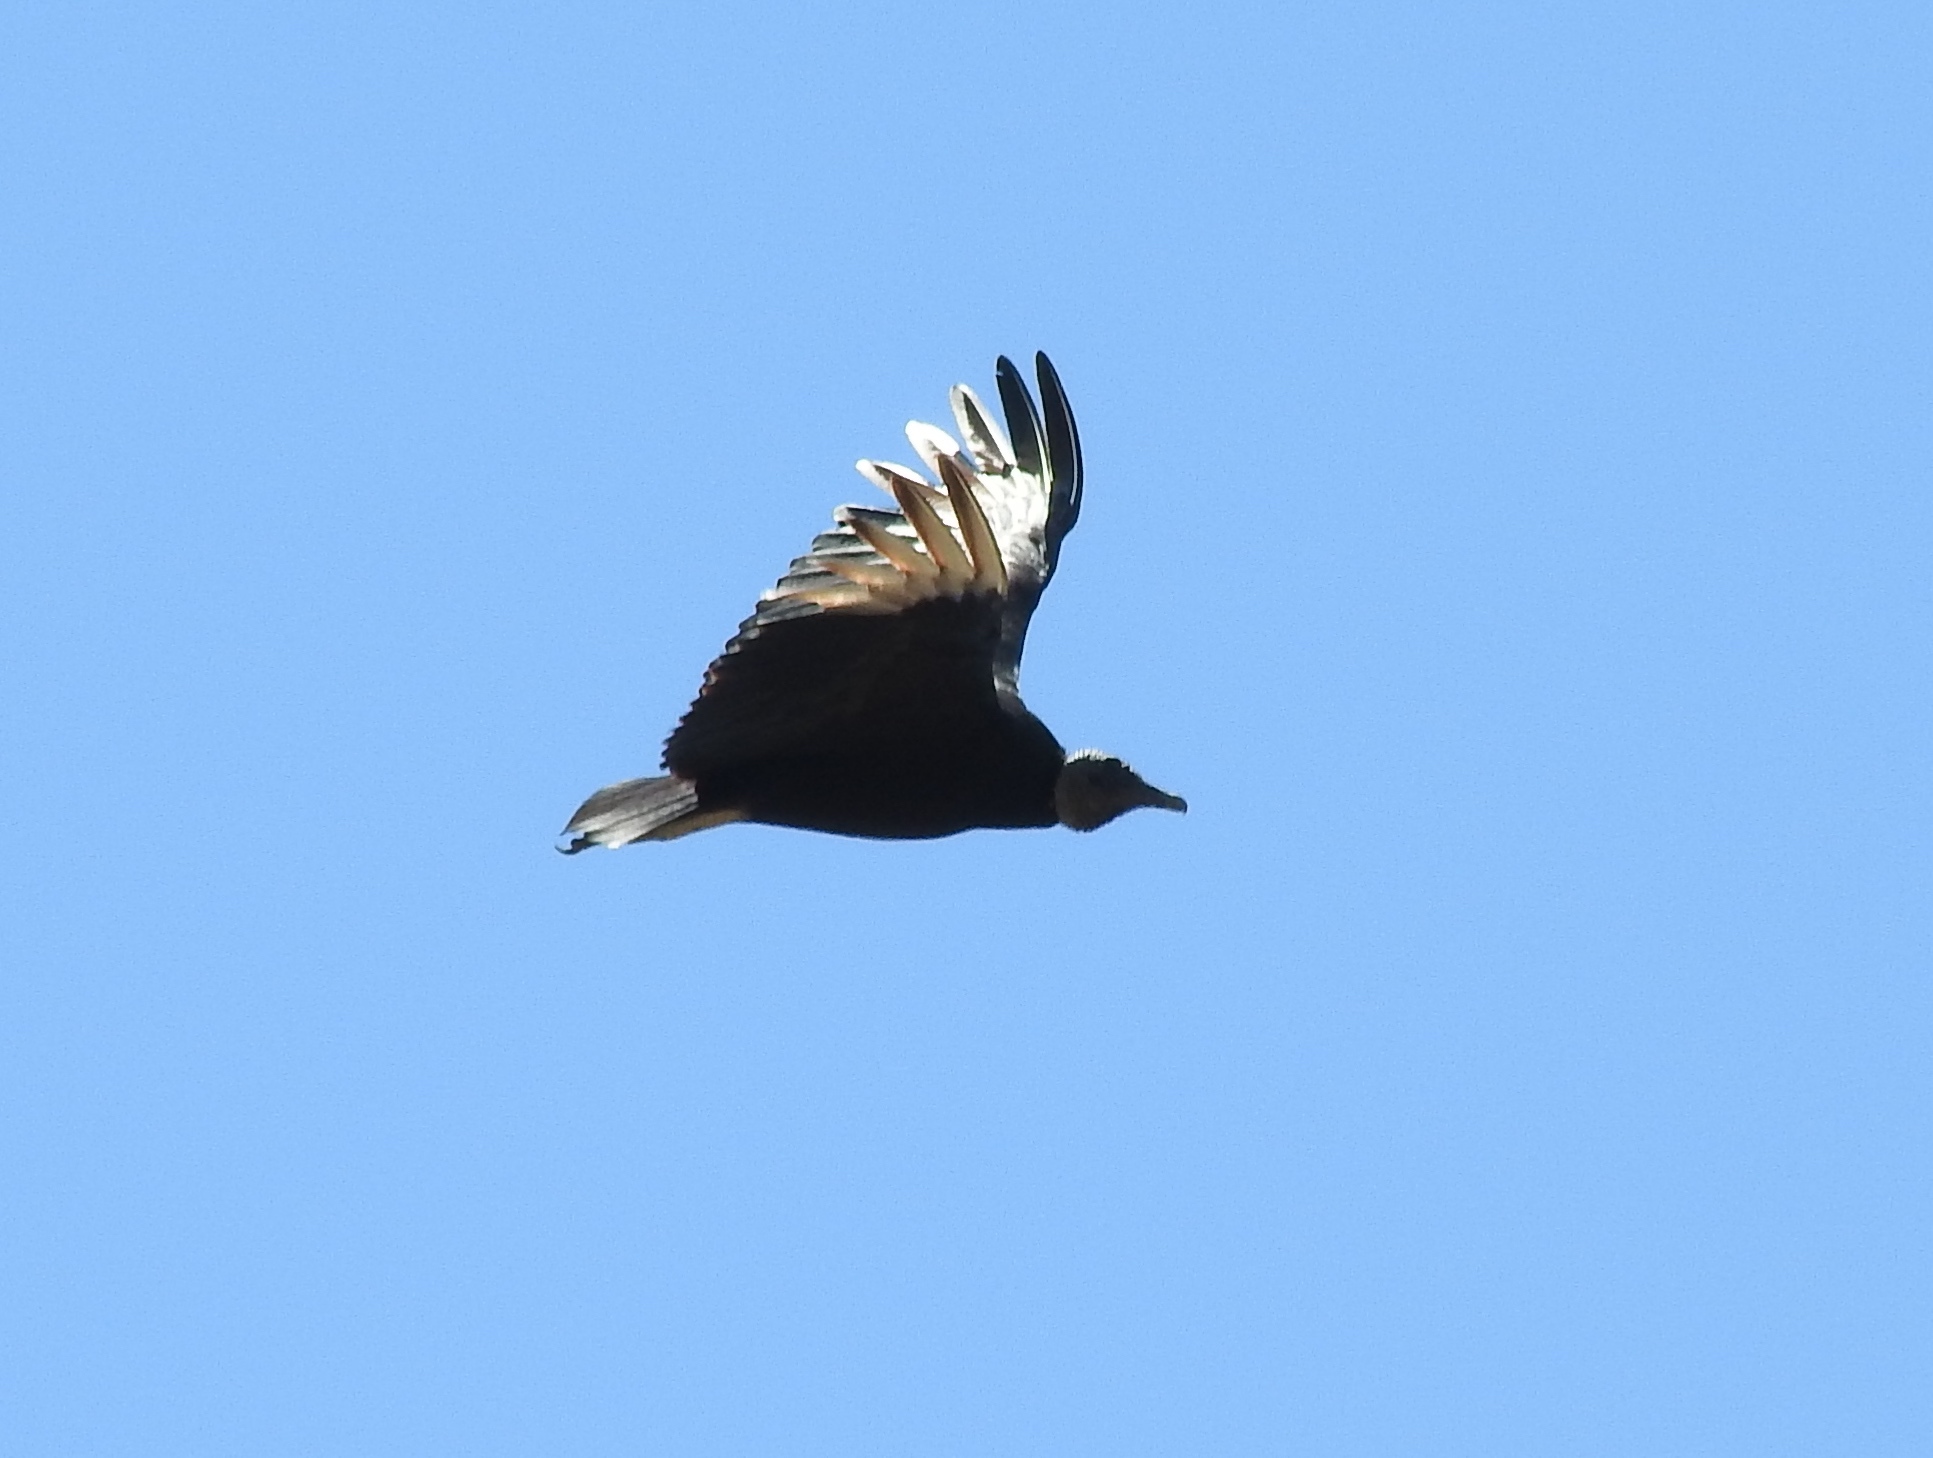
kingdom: Animalia
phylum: Chordata
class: Aves
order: Accipitriformes
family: Cathartidae
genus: Coragyps
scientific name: Coragyps atratus
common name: Black vulture
